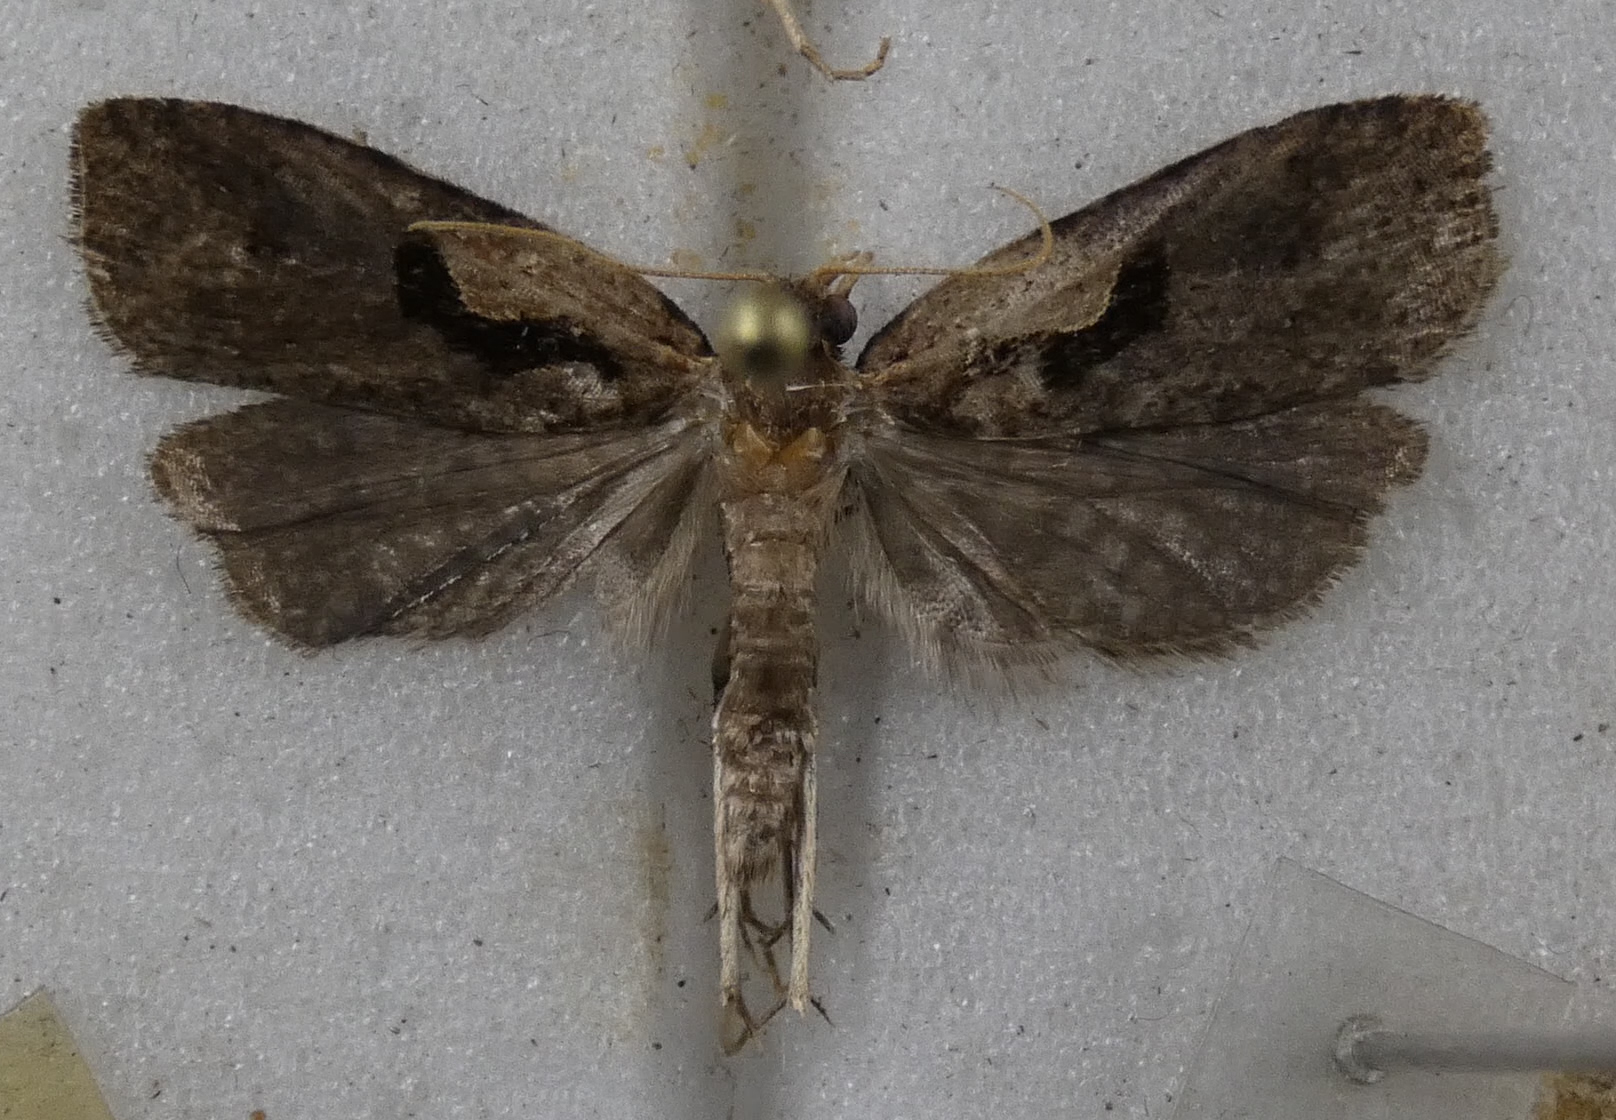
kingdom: Animalia
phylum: Arthropoda
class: Insecta
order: Lepidoptera
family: Tortricidae
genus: Cnephasia
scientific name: Cnephasia jactatana
